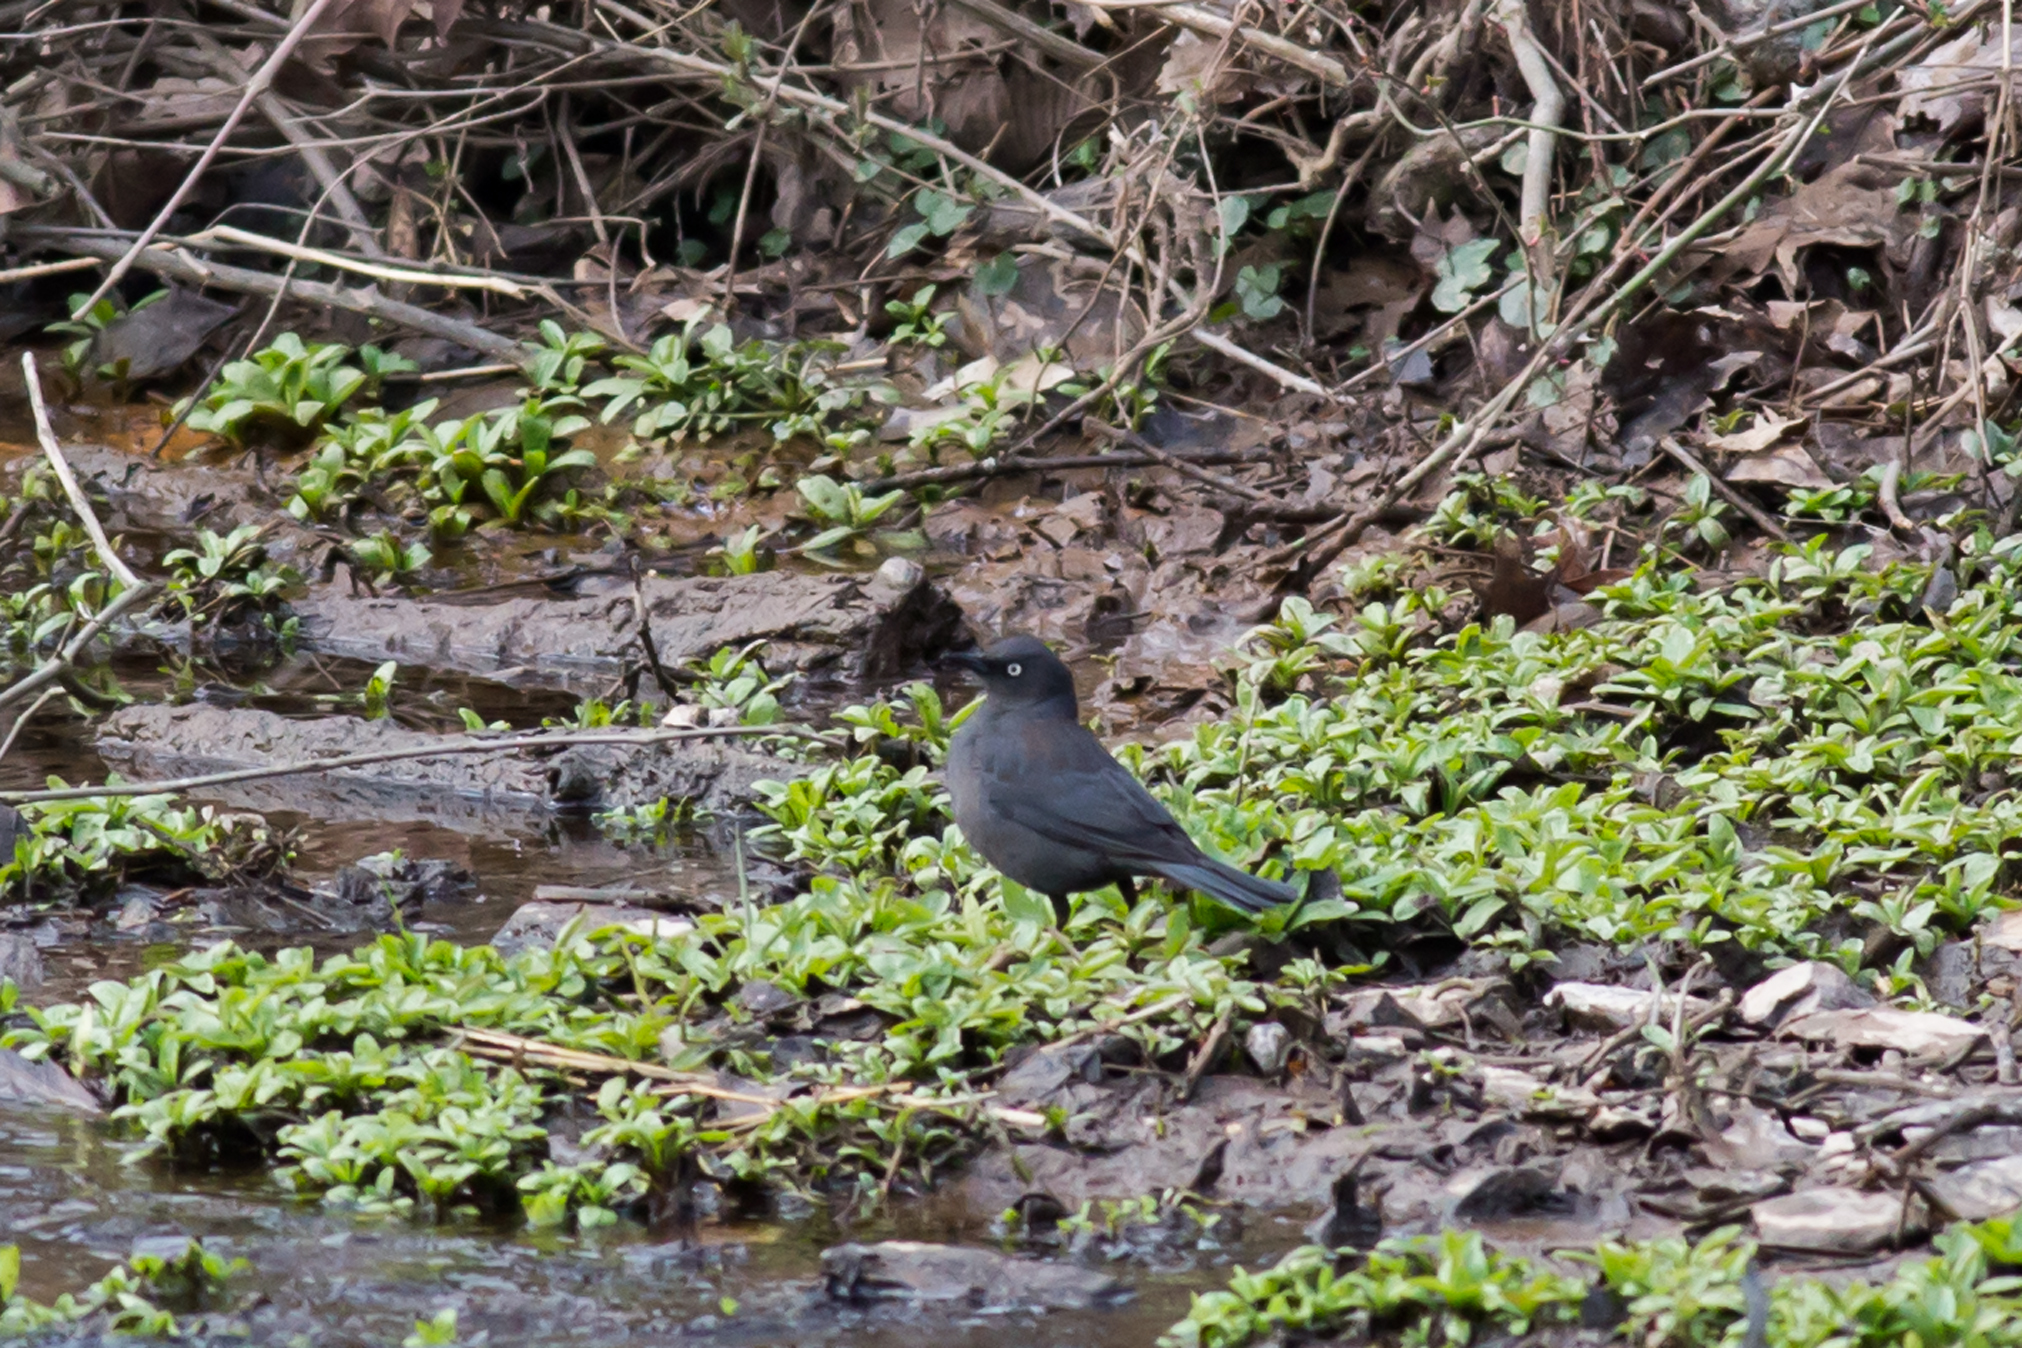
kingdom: Animalia
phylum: Chordata
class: Aves
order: Passeriformes
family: Icteridae
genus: Euphagus
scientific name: Euphagus carolinus
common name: Rusty blackbird
